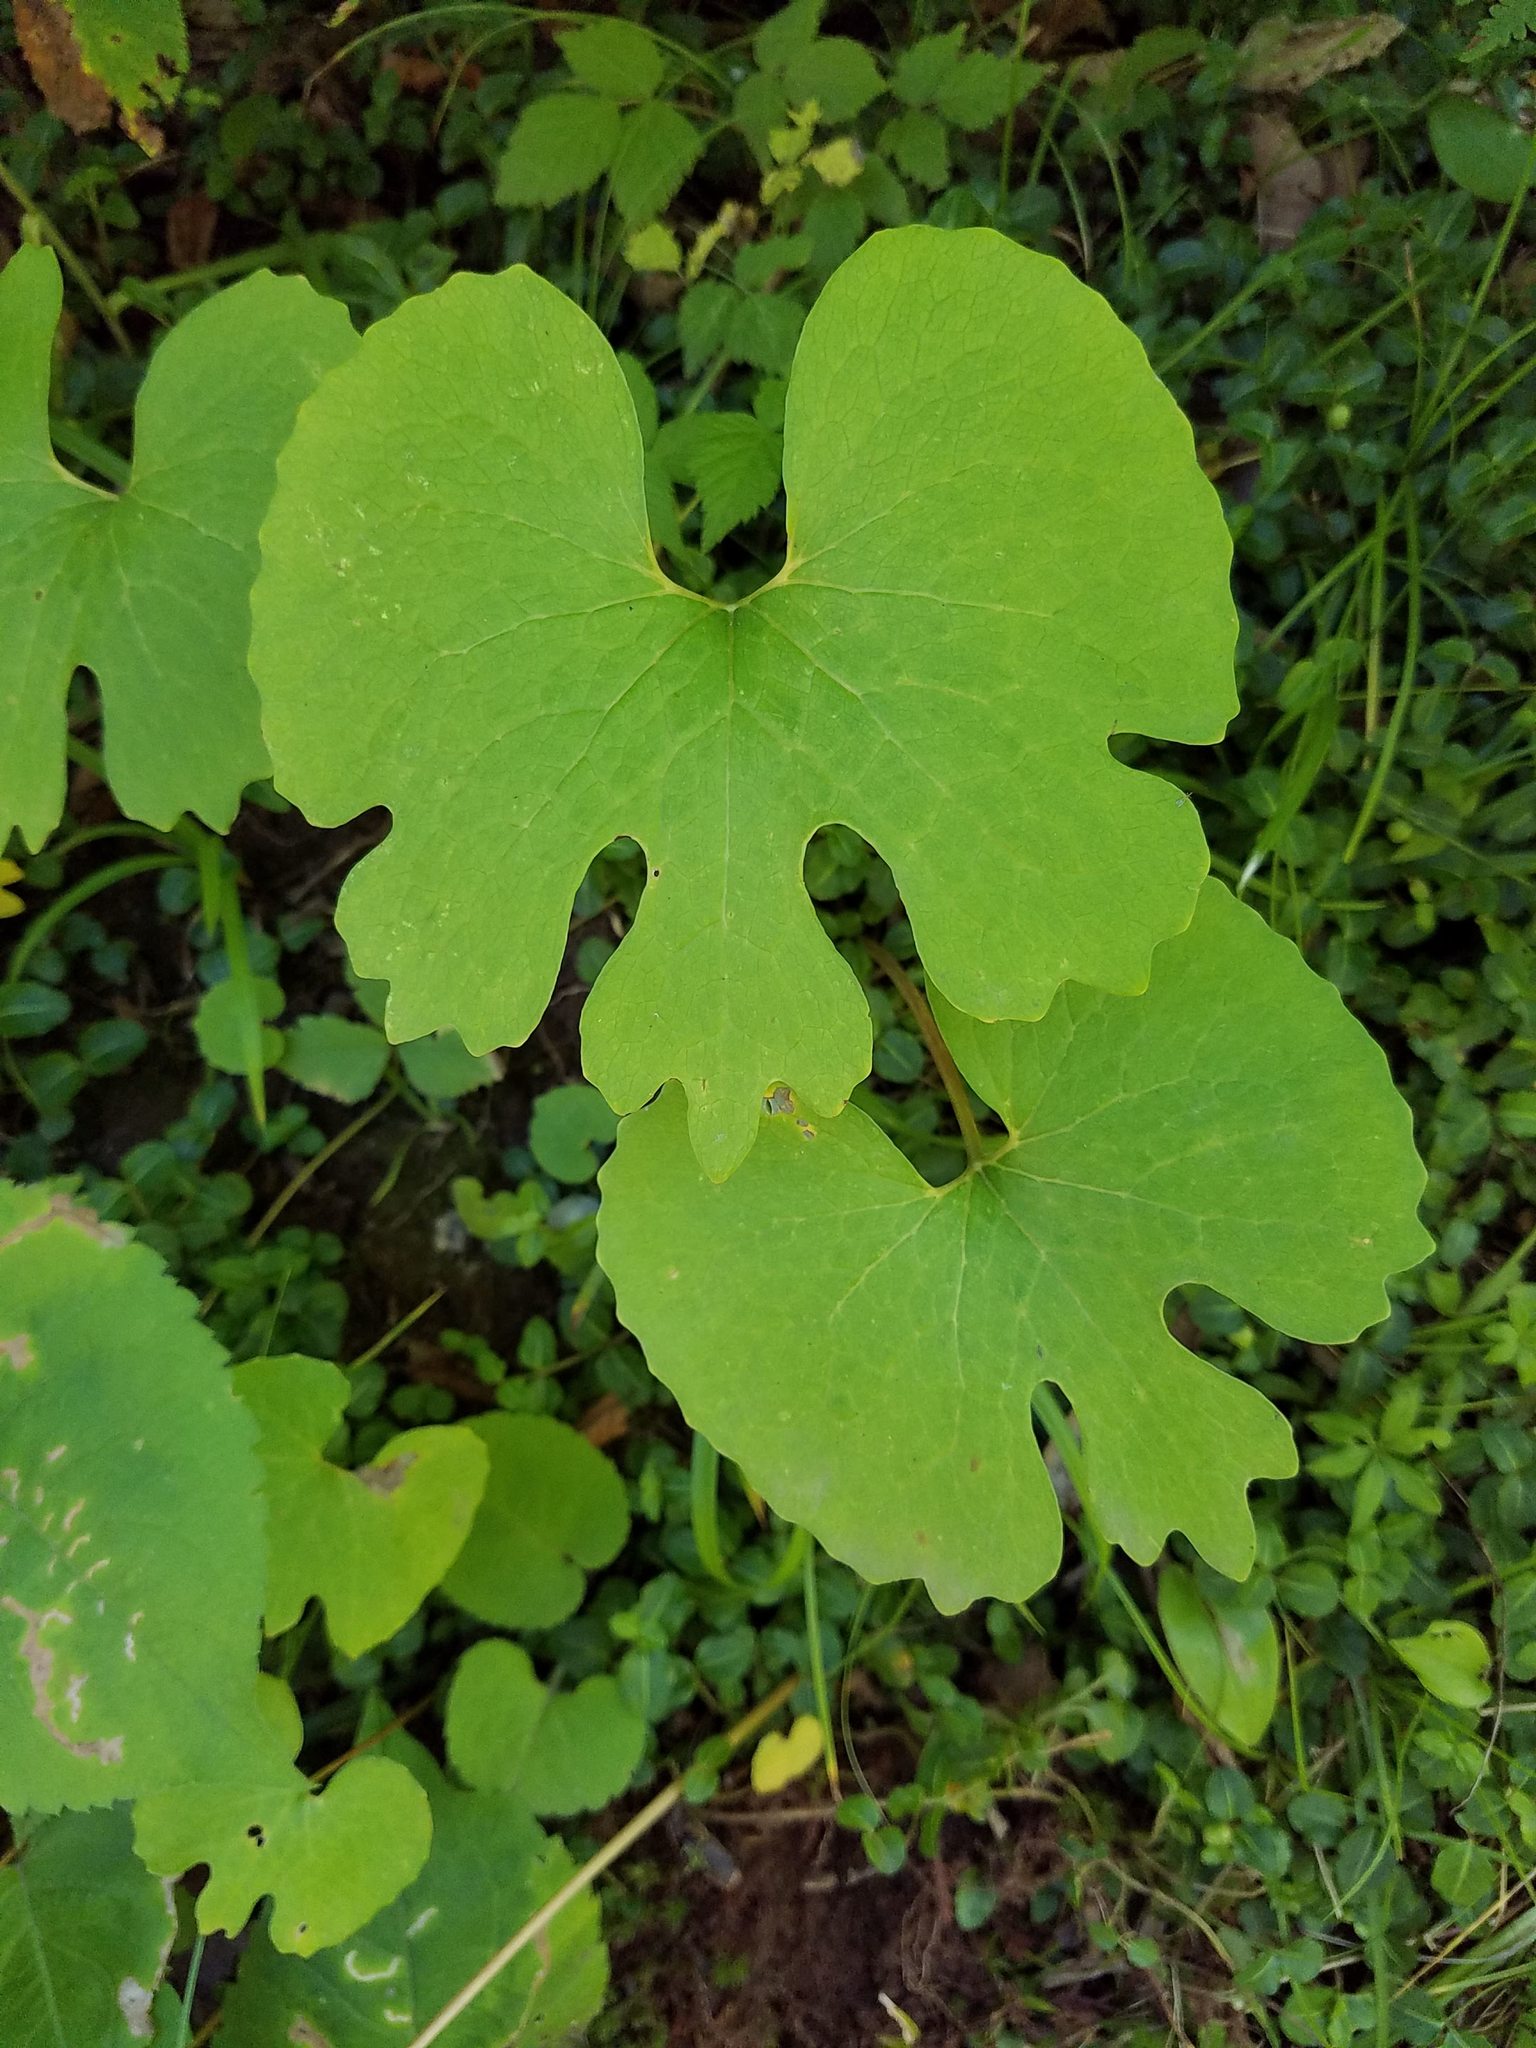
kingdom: Plantae
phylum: Tracheophyta
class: Magnoliopsida
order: Ranunculales
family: Papaveraceae
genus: Sanguinaria
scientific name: Sanguinaria canadensis
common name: Bloodroot
